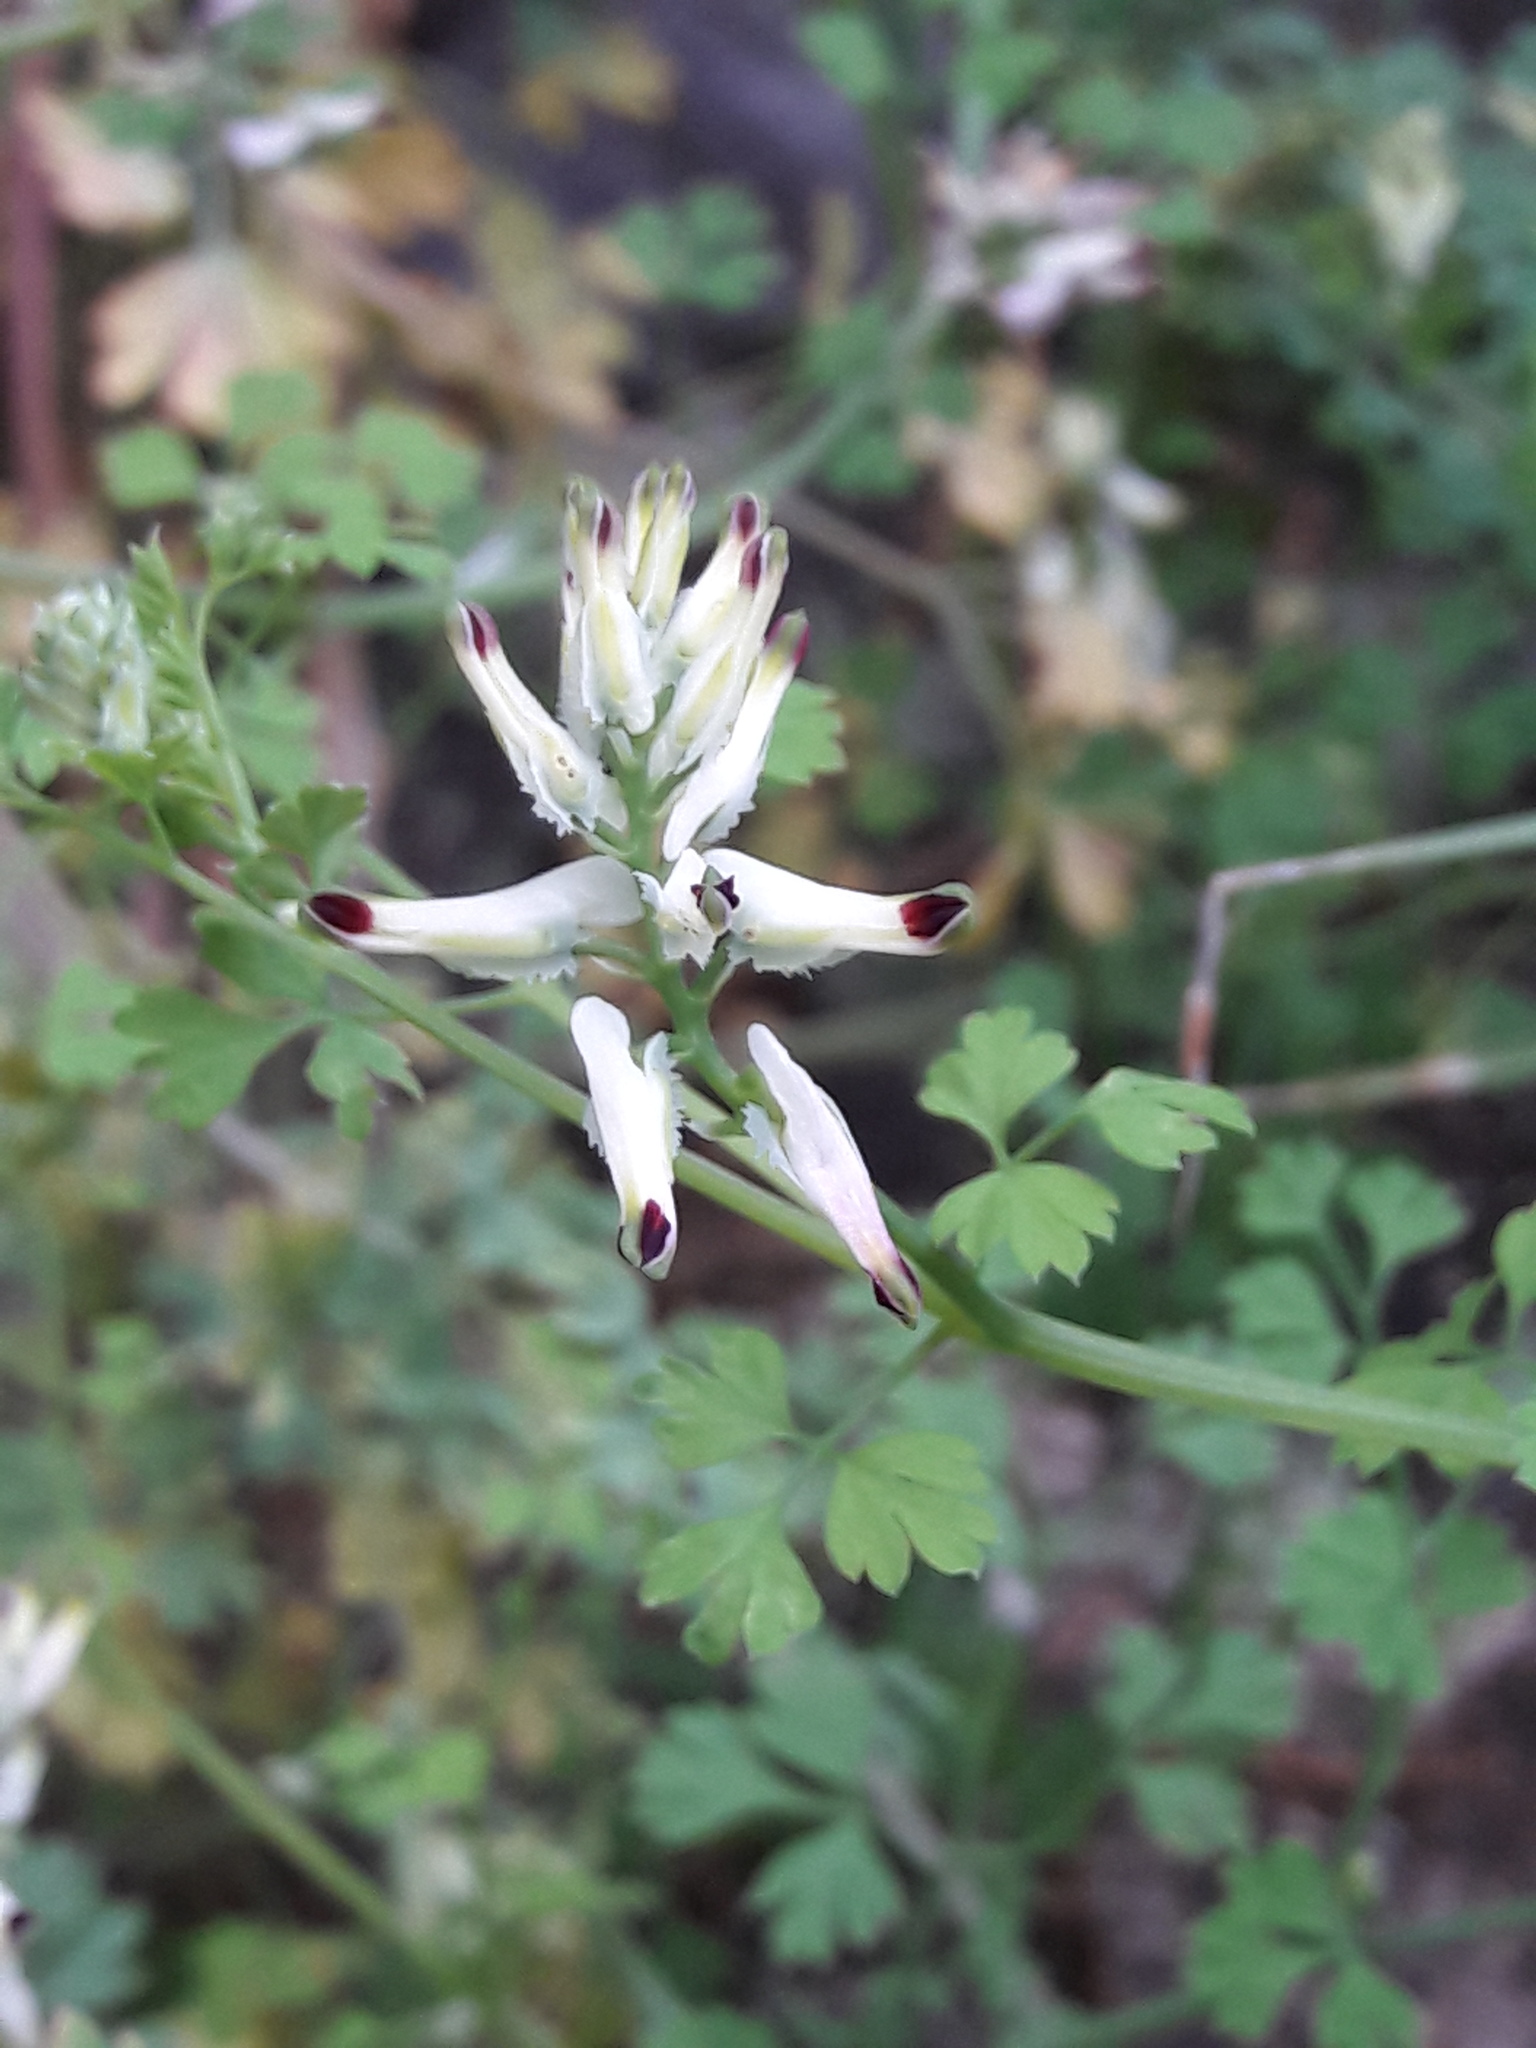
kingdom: Plantae
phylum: Tracheophyta
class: Magnoliopsida
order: Ranunculales
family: Papaveraceae
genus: Fumaria
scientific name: Fumaria capreolata
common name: White ramping-fumitory
